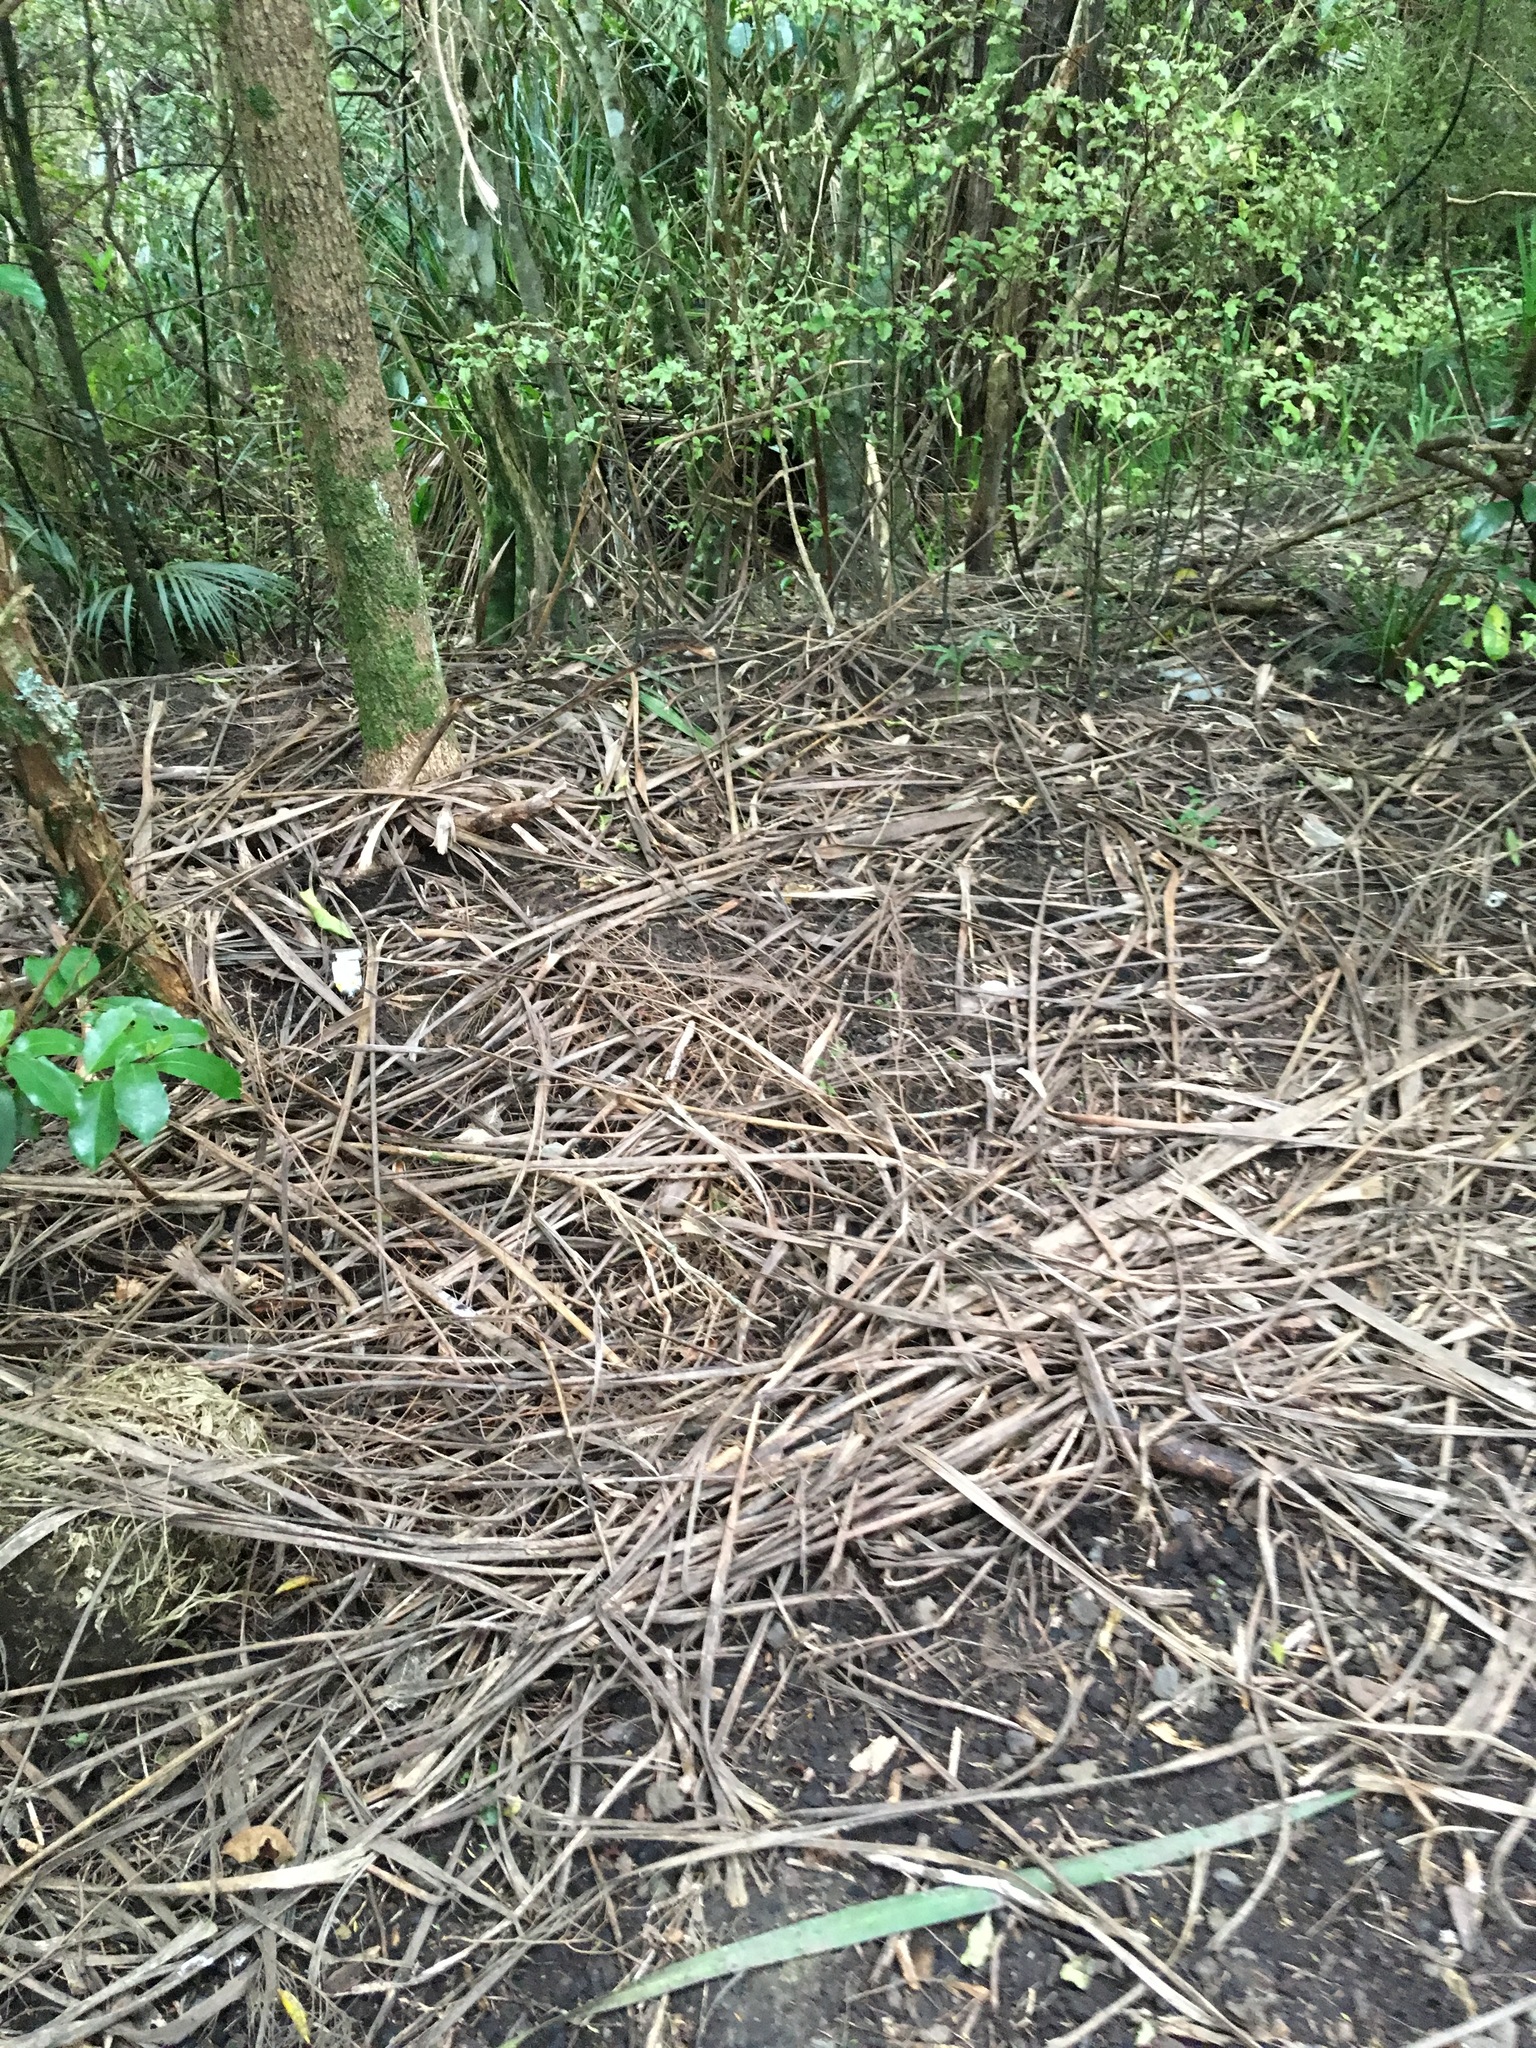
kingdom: Plantae
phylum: Tracheophyta
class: Liliopsida
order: Asparagales
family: Asparagaceae
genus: Cordyline
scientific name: Cordyline australis
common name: Cabbage-palm
